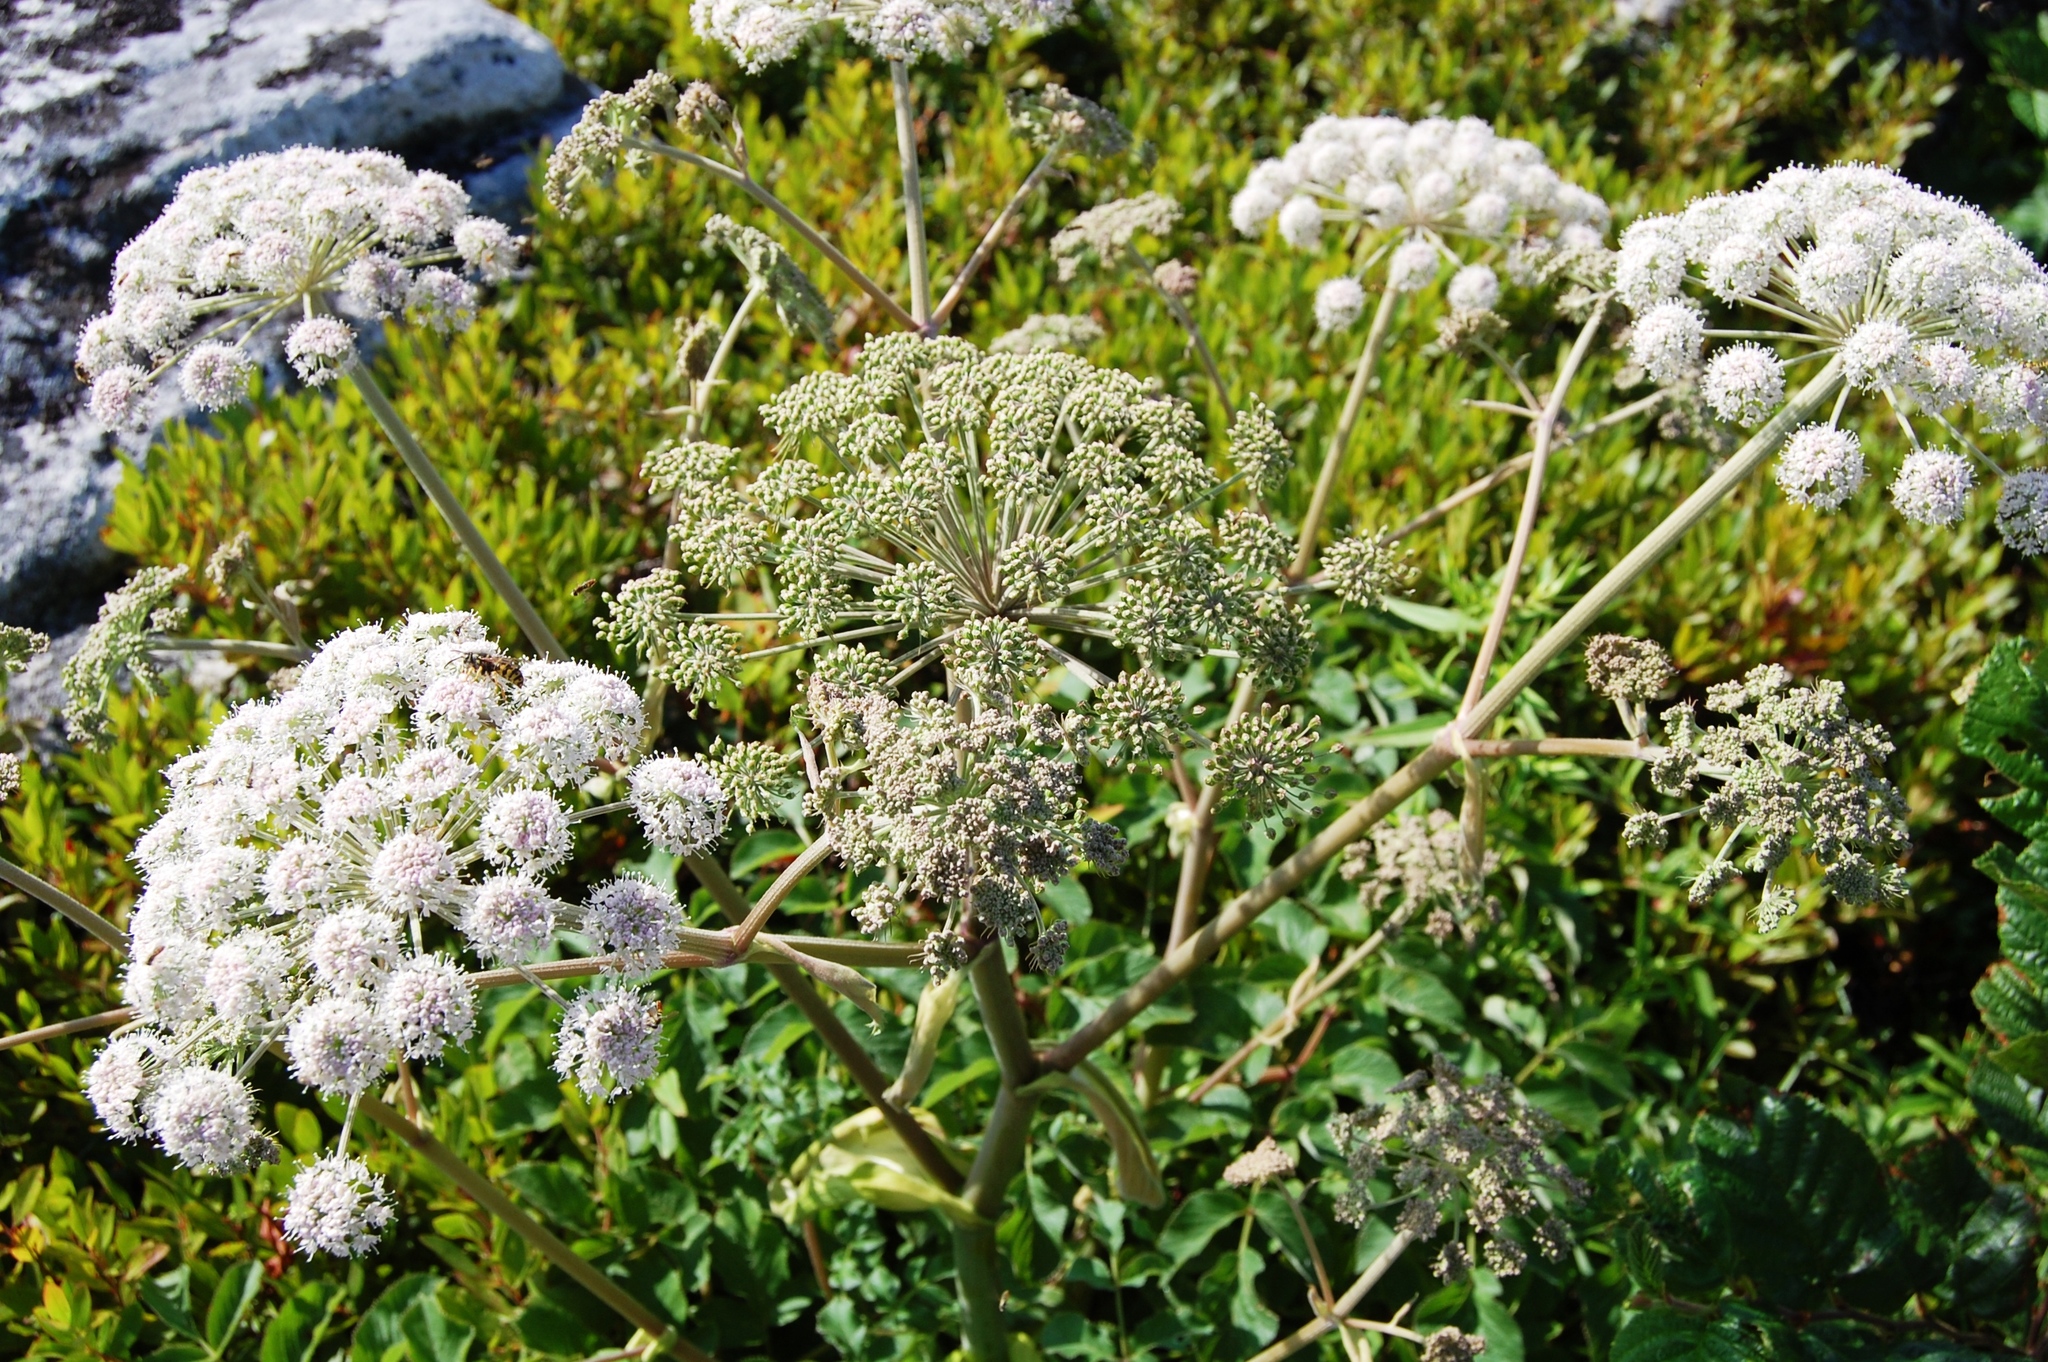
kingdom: Plantae
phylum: Tracheophyta
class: Magnoliopsida
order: Apiales
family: Apiaceae
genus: Angelica
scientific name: Angelica sylvestris
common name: Wild angelica
